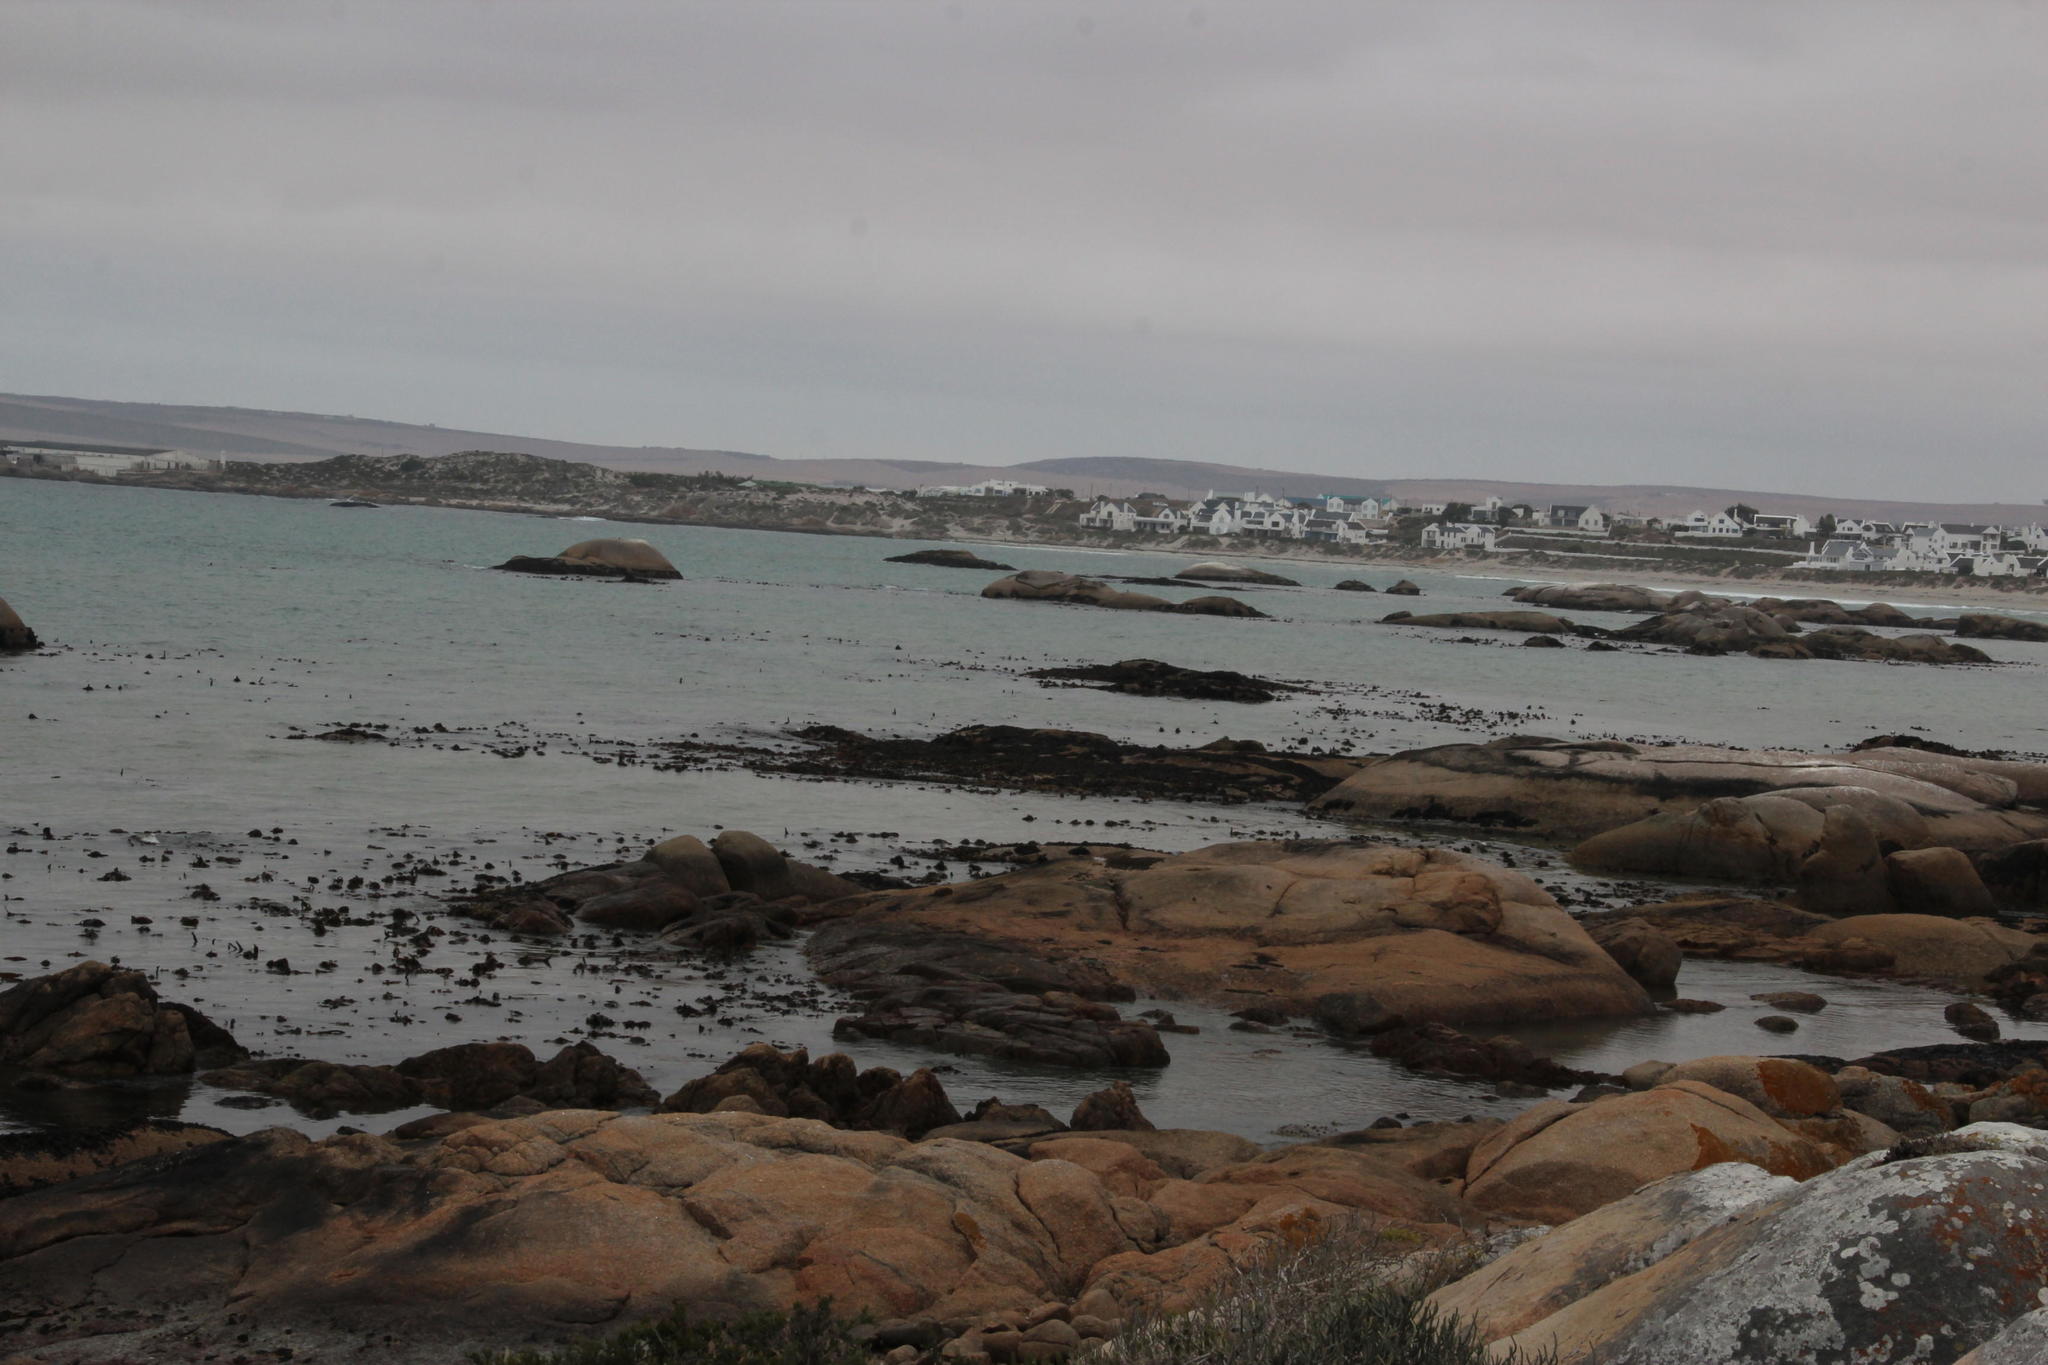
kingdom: Chromista
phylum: Ochrophyta
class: Phaeophyceae
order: Laminariales
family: Lessoniaceae
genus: Ecklonia
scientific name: Ecklonia
